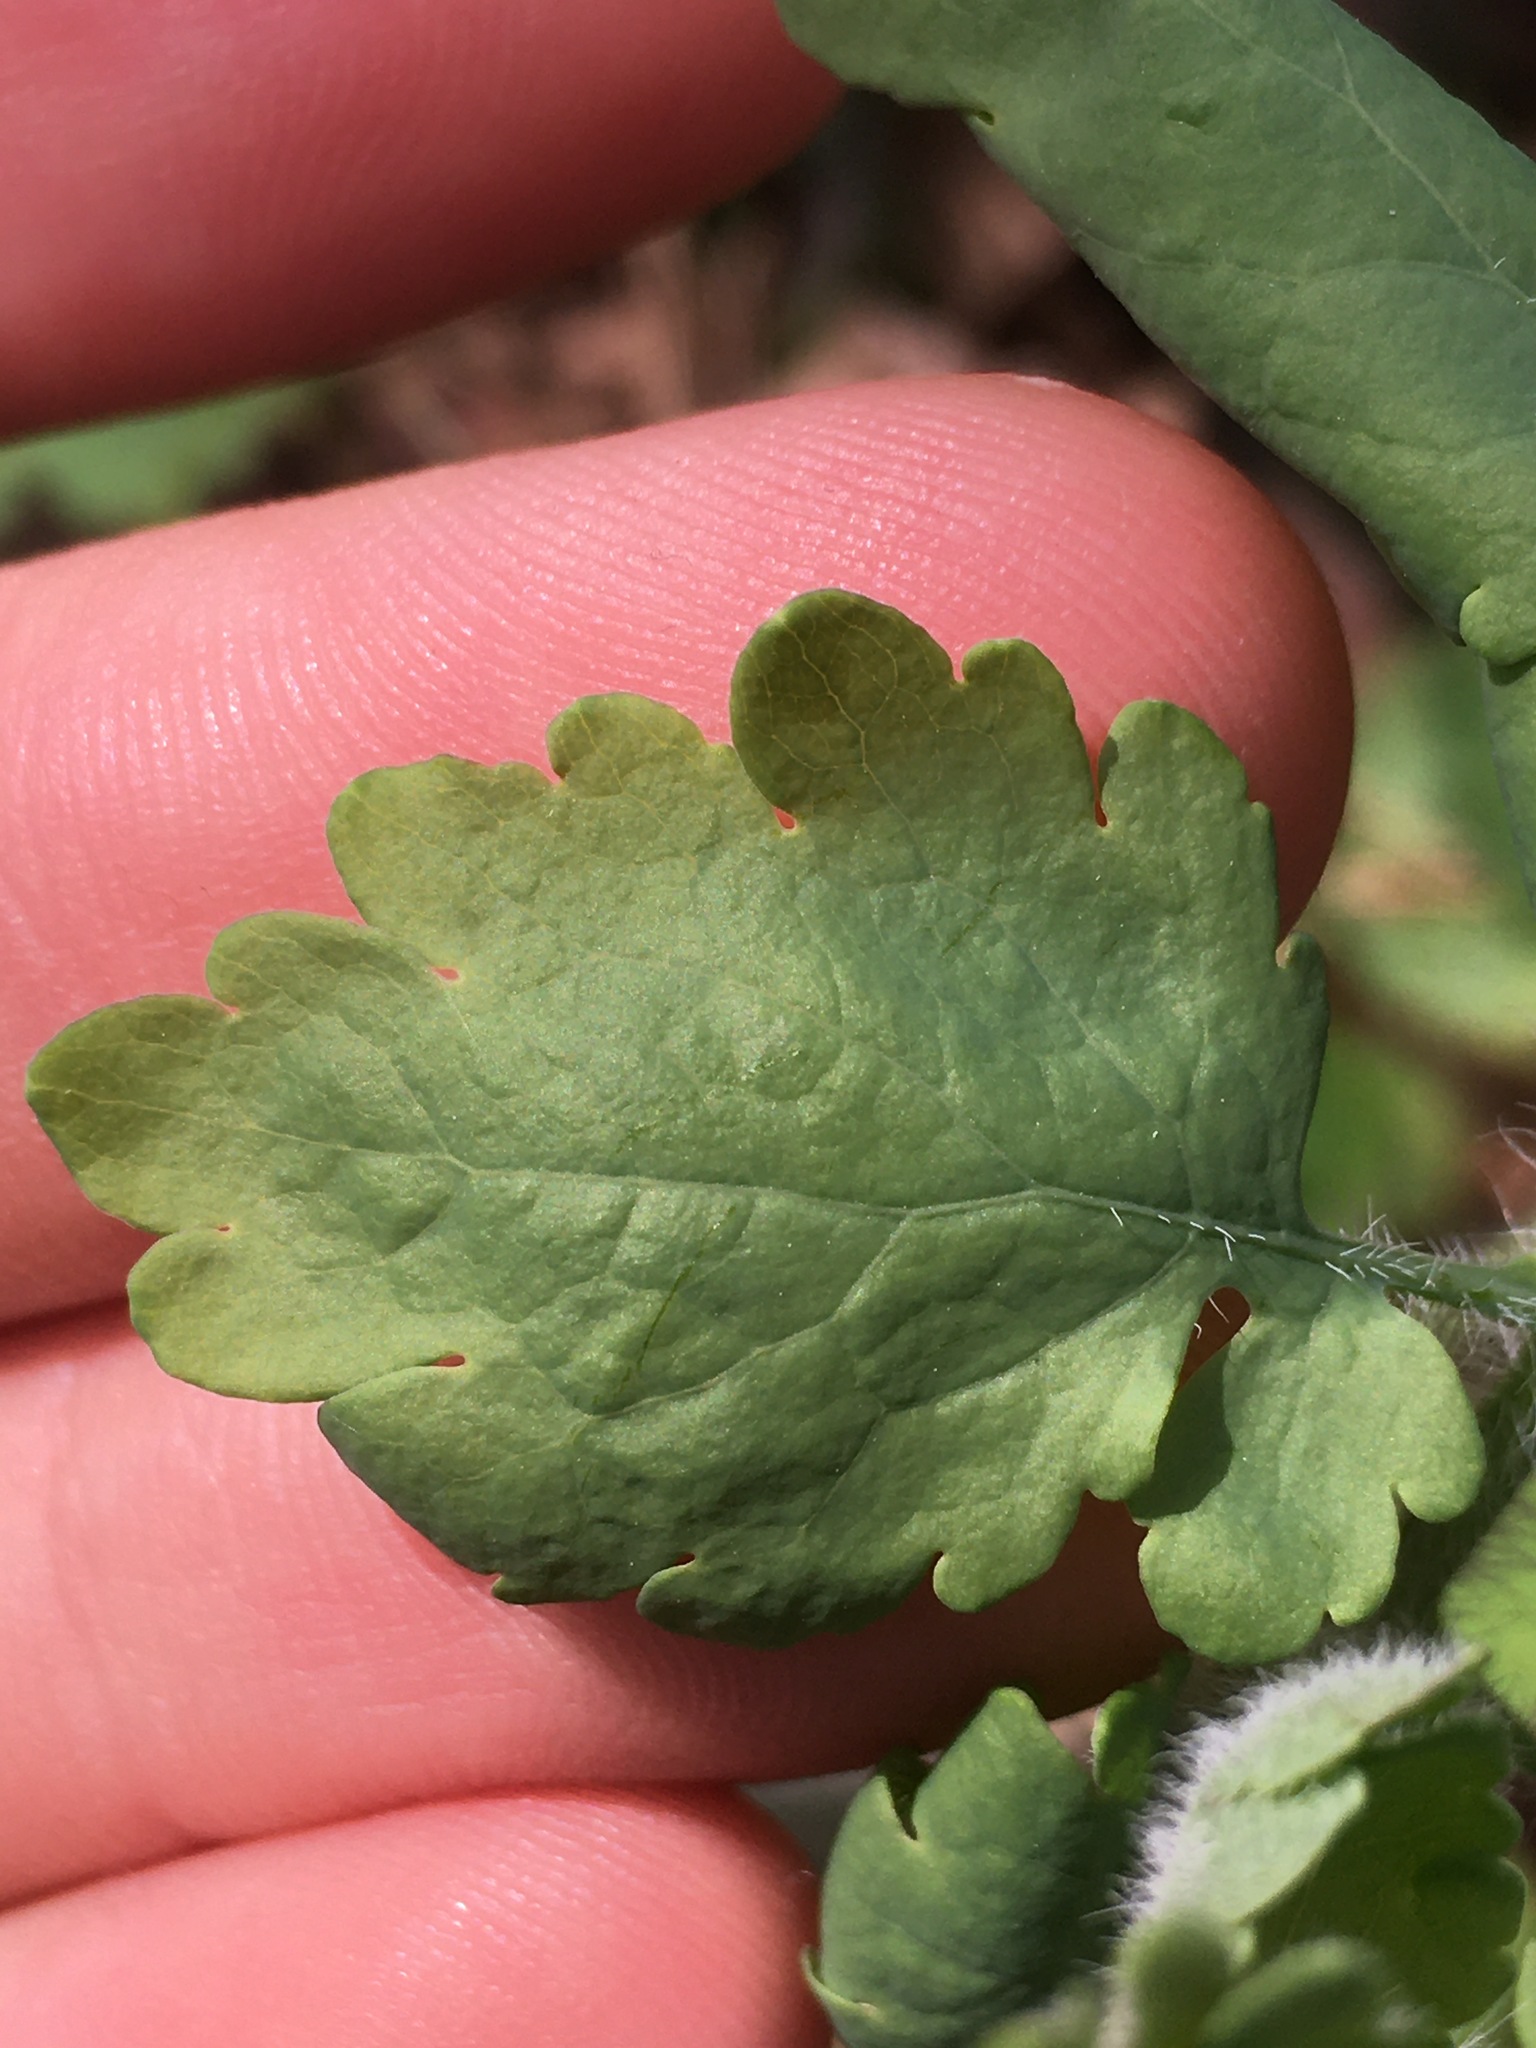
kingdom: Plantae
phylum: Tracheophyta
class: Magnoliopsida
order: Ranunculales
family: Papaveraceae
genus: Chelidonium
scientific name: Chelidonium majus
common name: Greater celandine
